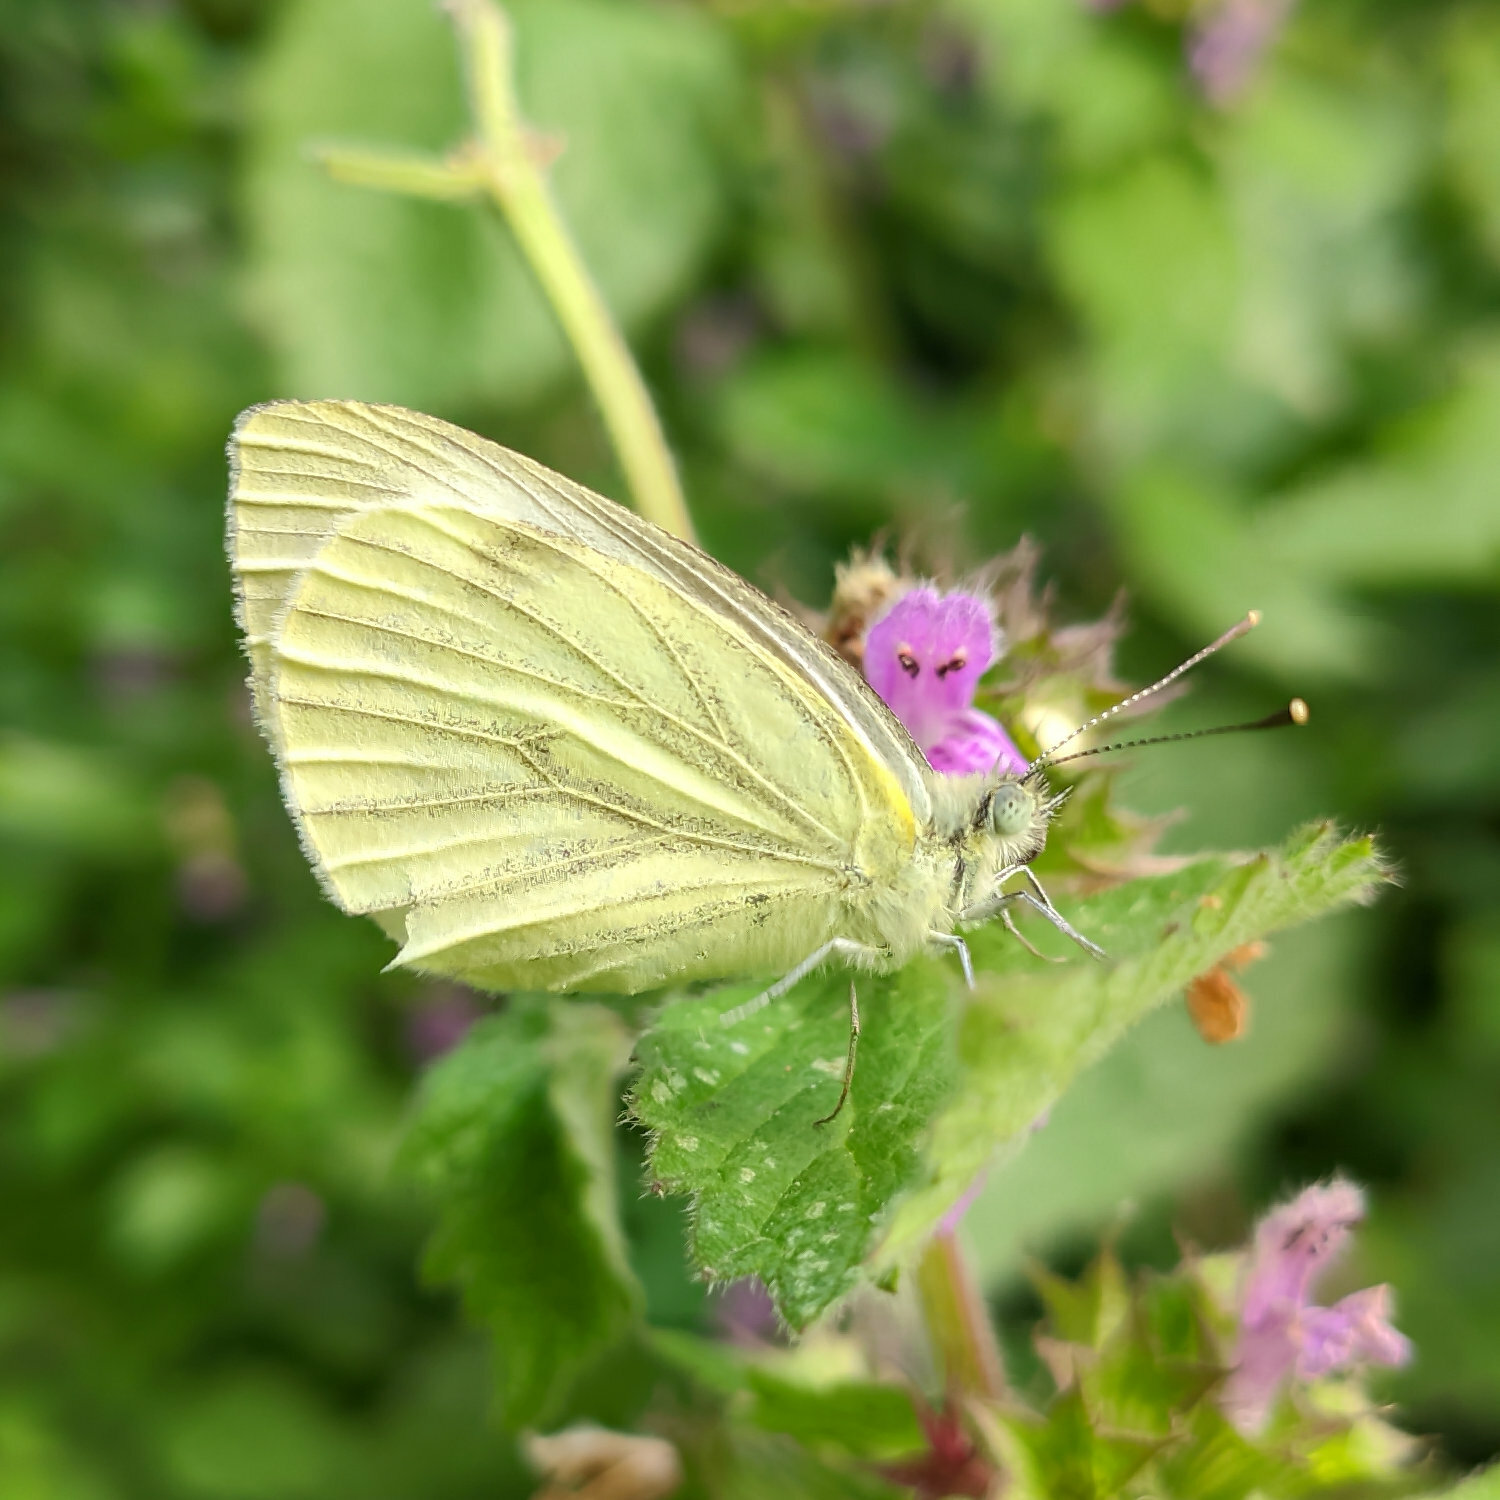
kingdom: Animalia
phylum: Arthropoda
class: Insecta
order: Lepidoptera
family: Pieridae
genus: Pieris
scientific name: Pieris napi
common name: Green-veined white
